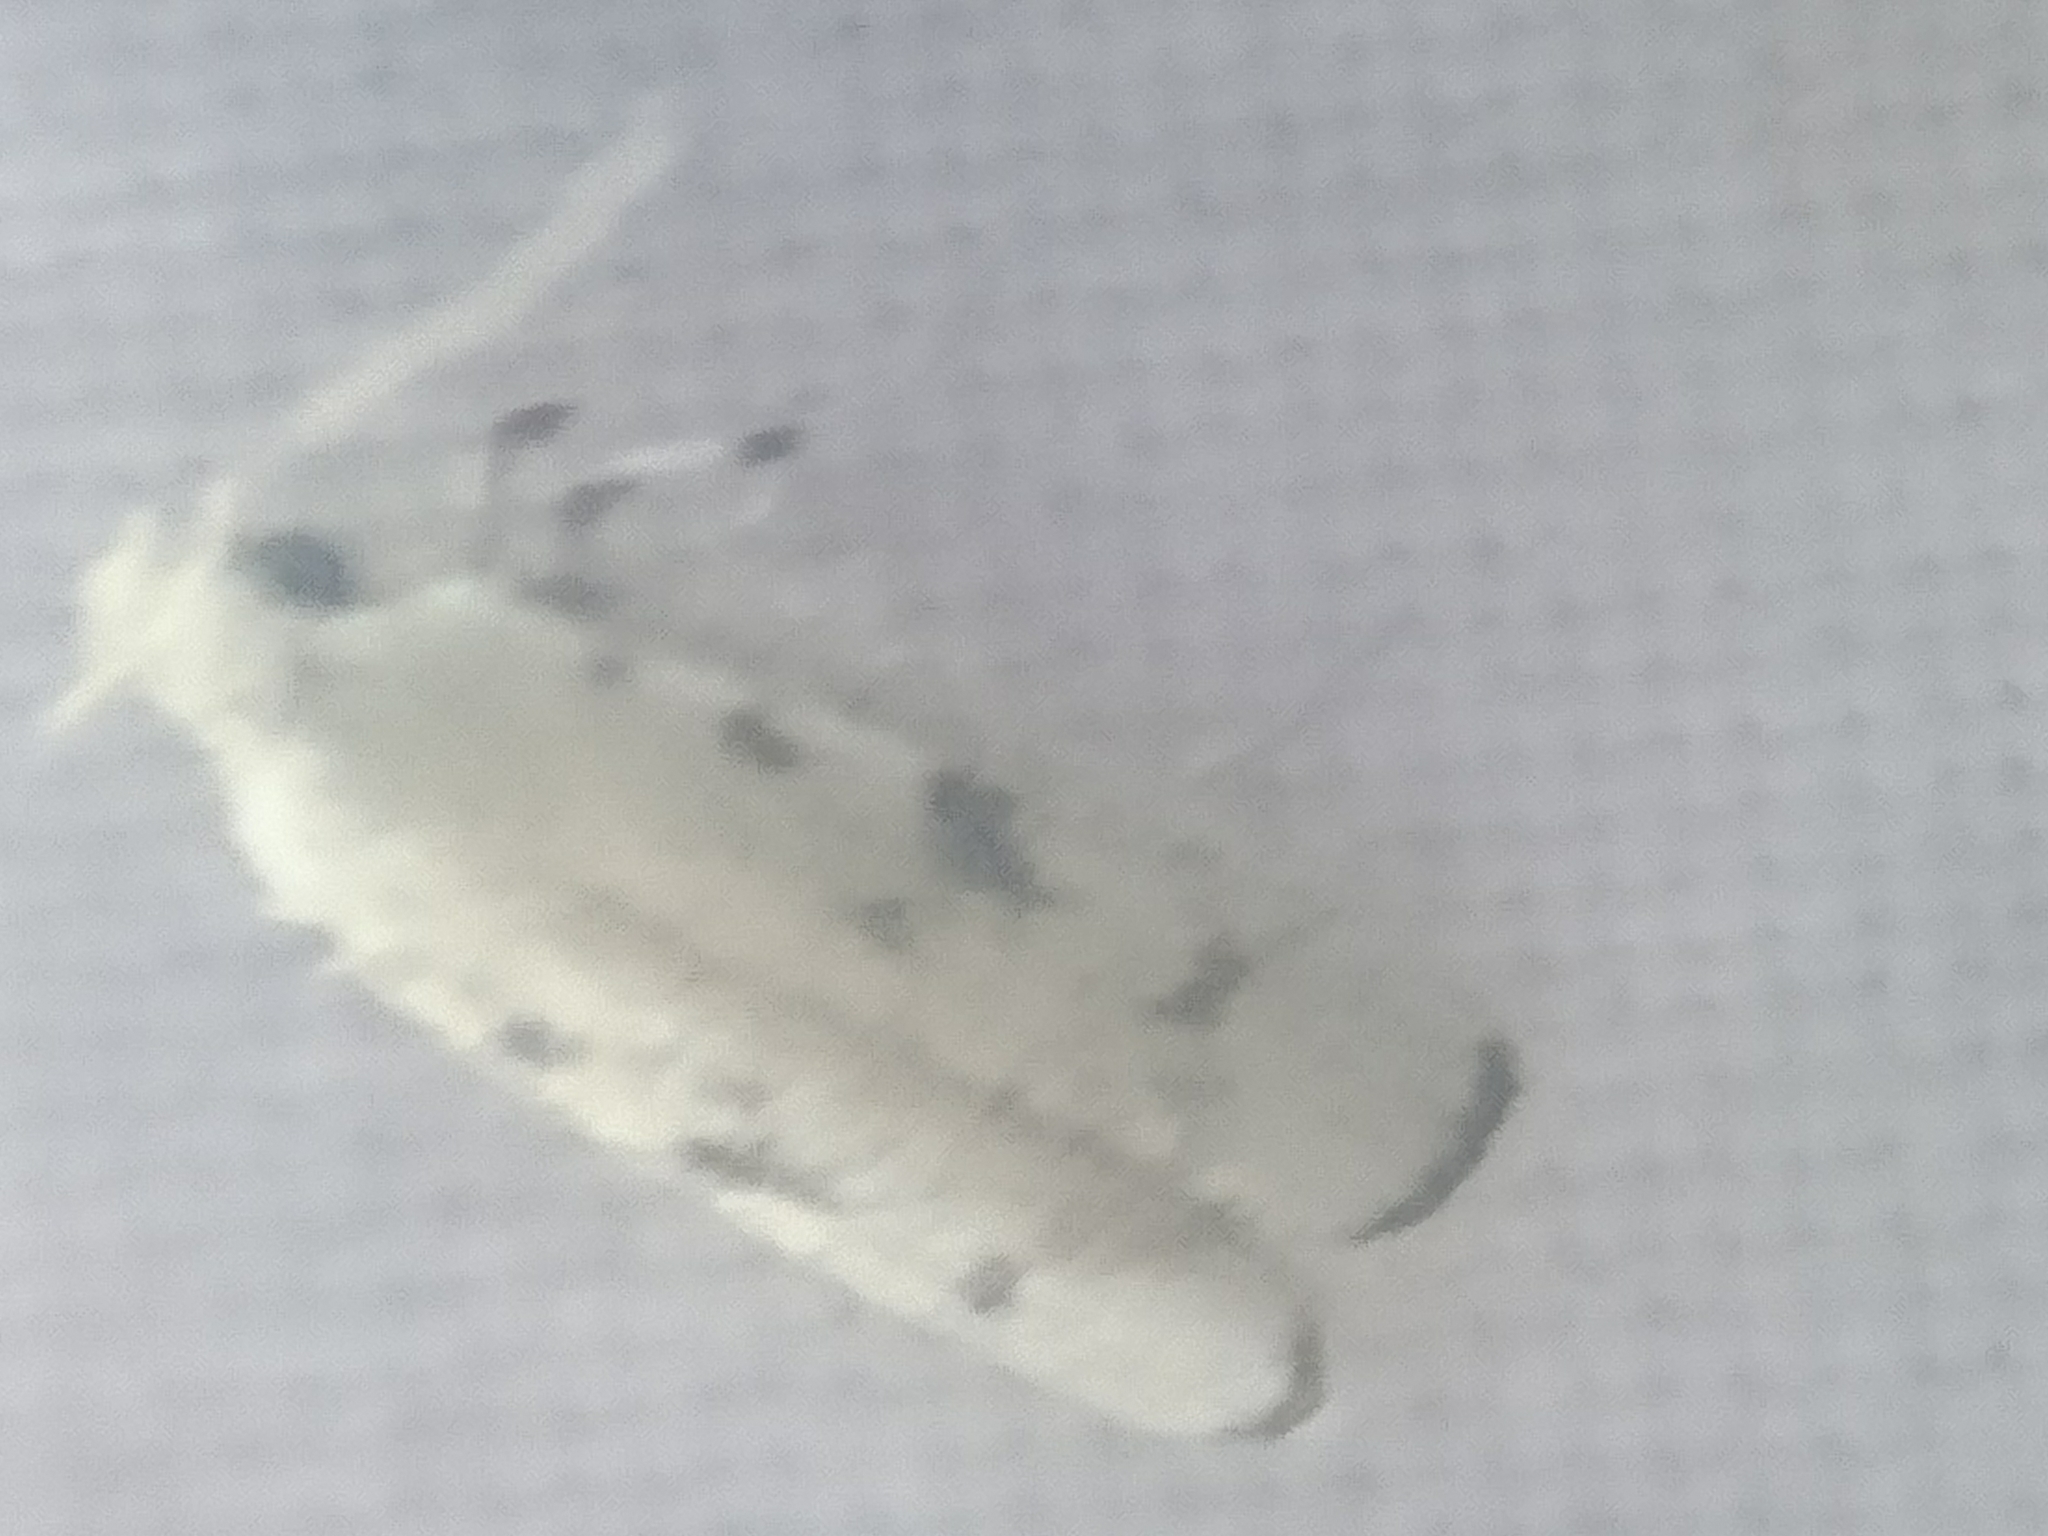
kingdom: Animalia
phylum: Arthropoda
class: Insecta
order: Lepidoptera
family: Autostichidae
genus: Glyphidocera
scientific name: Glyphidocera lactiflosella
